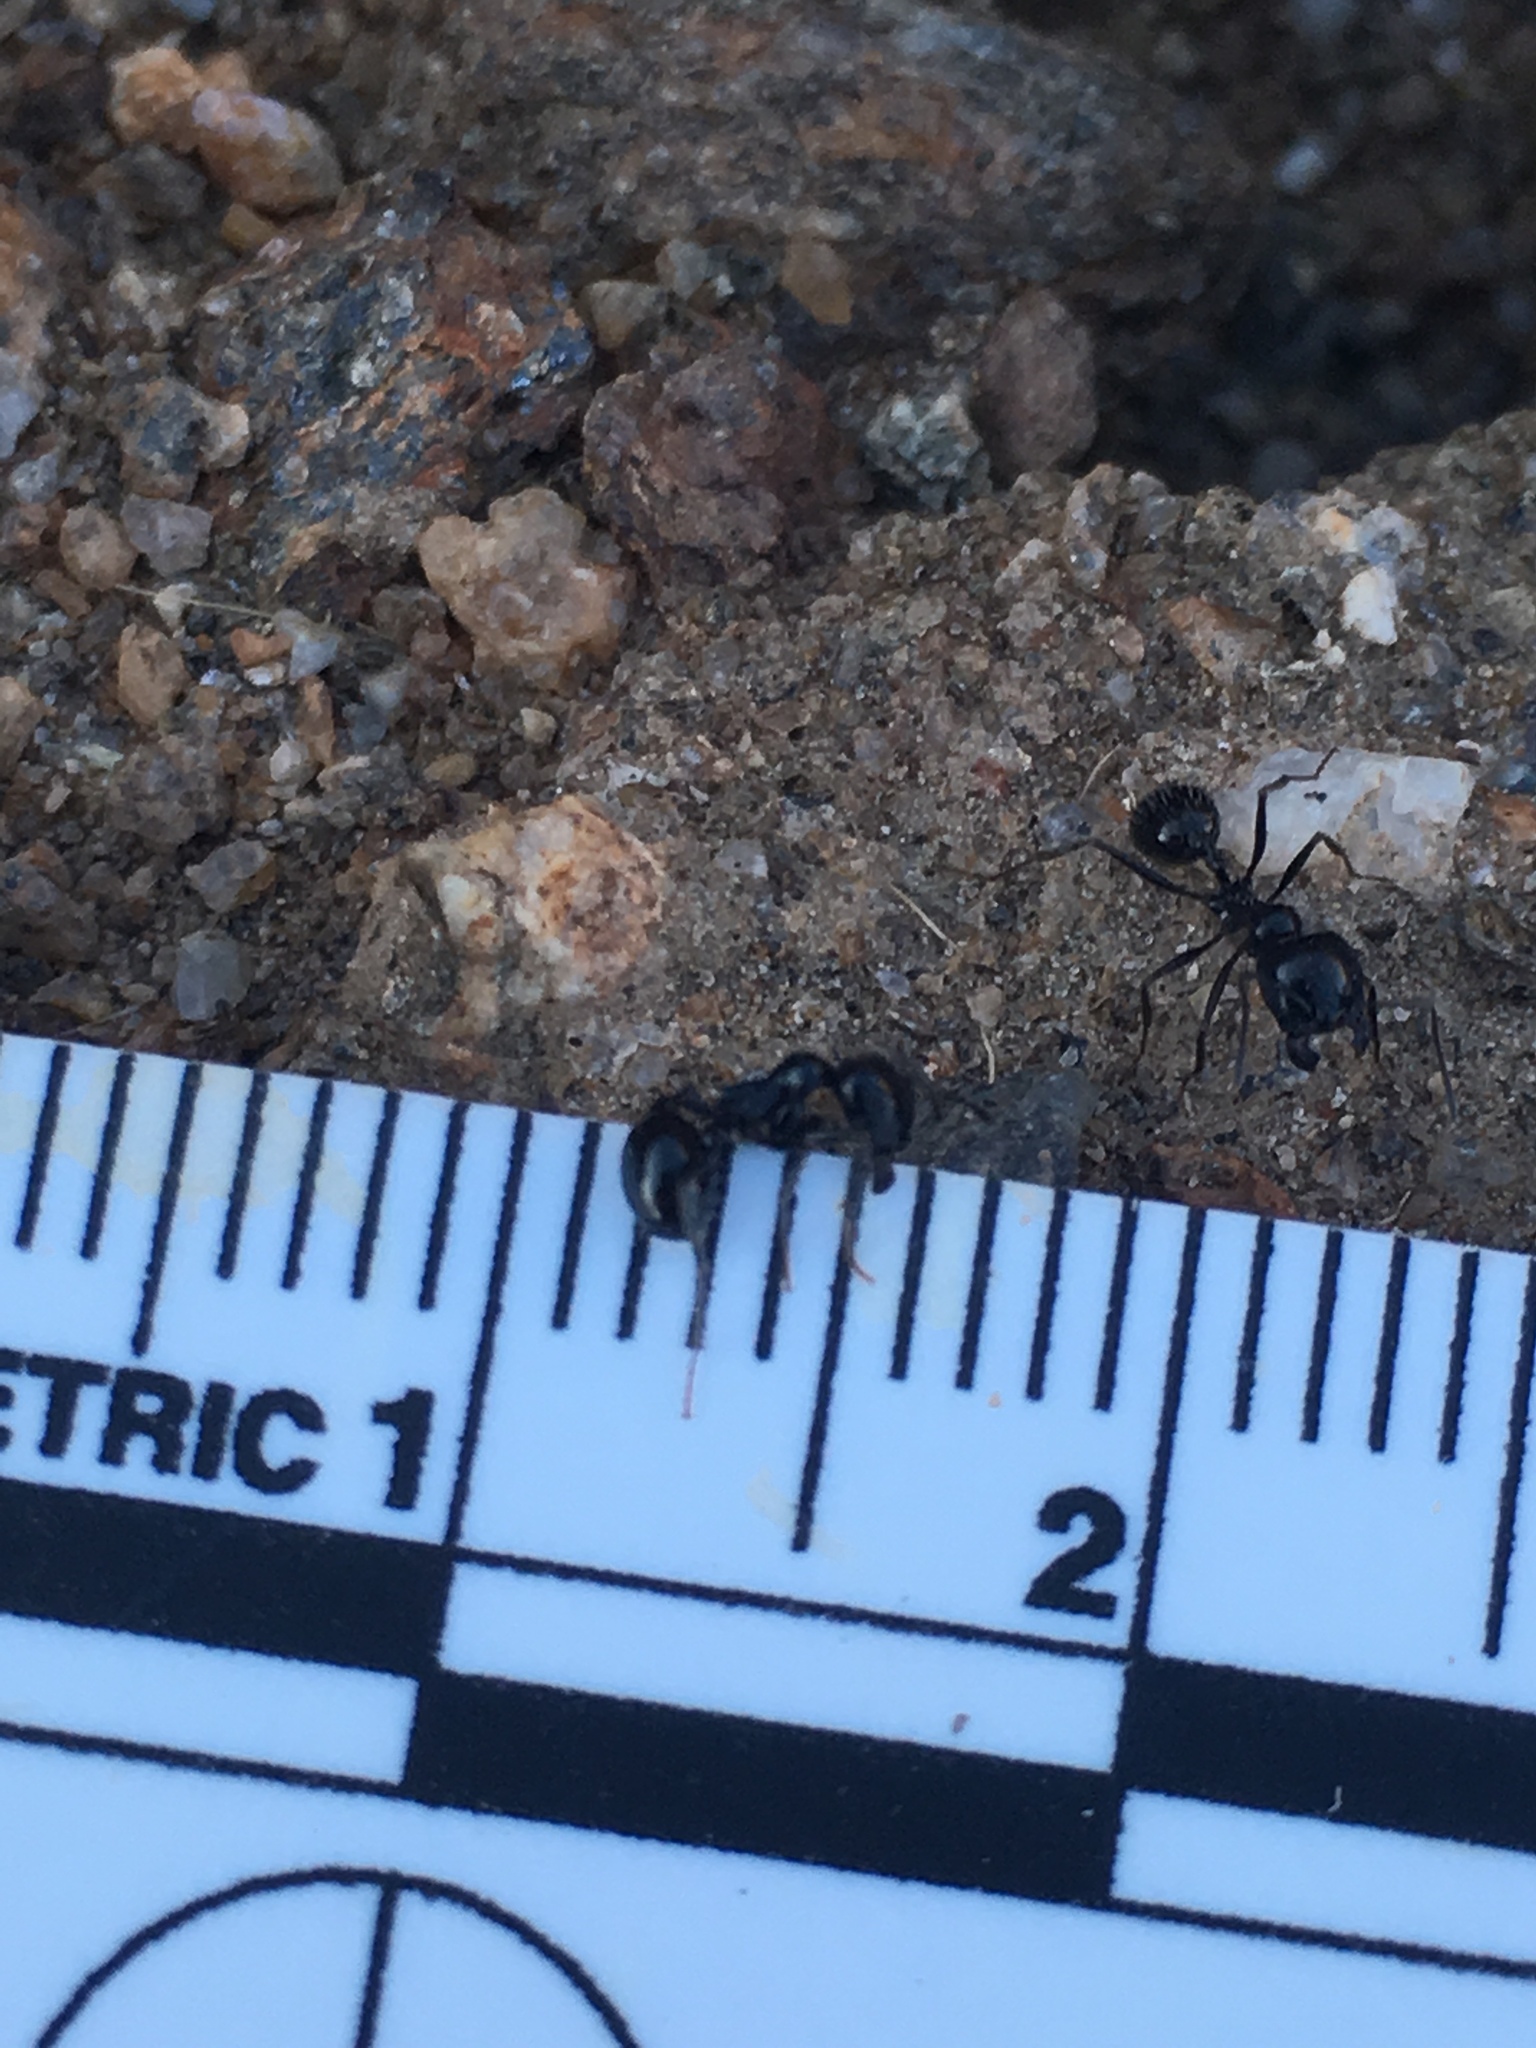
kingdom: Animalia
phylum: Arthropoda
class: Insecta
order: Hymenoptera
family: Formicidae
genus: Messor
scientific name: Messor pergandei
